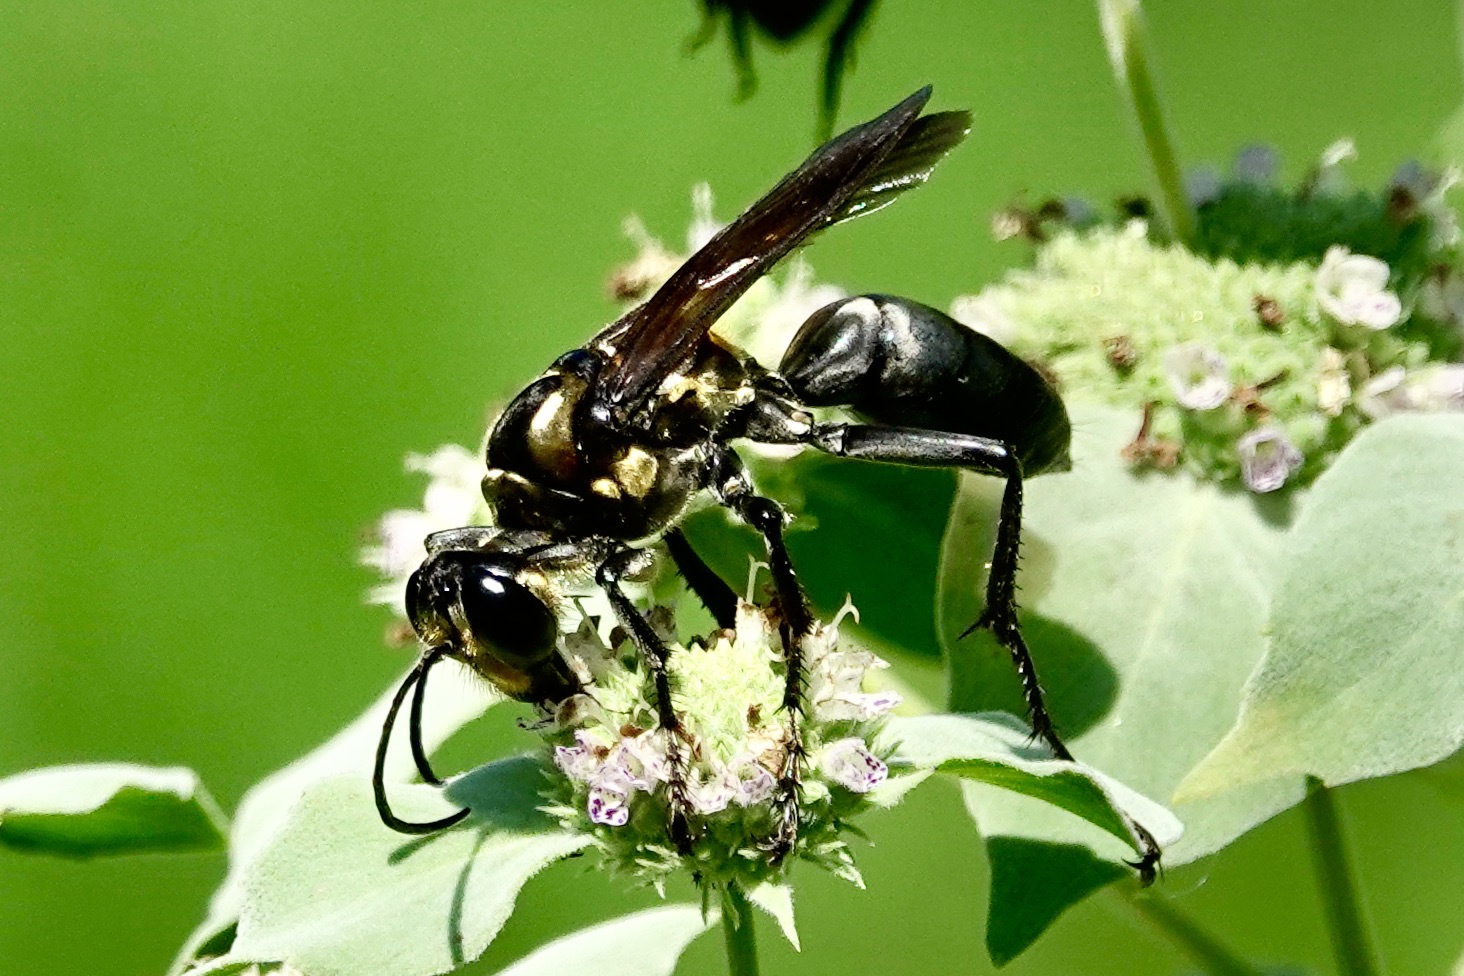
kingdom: Animalia
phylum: Arthropoda
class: Insecta
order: Hymenoptera
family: Sphecidae
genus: Sphex
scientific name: Sphex habenus
